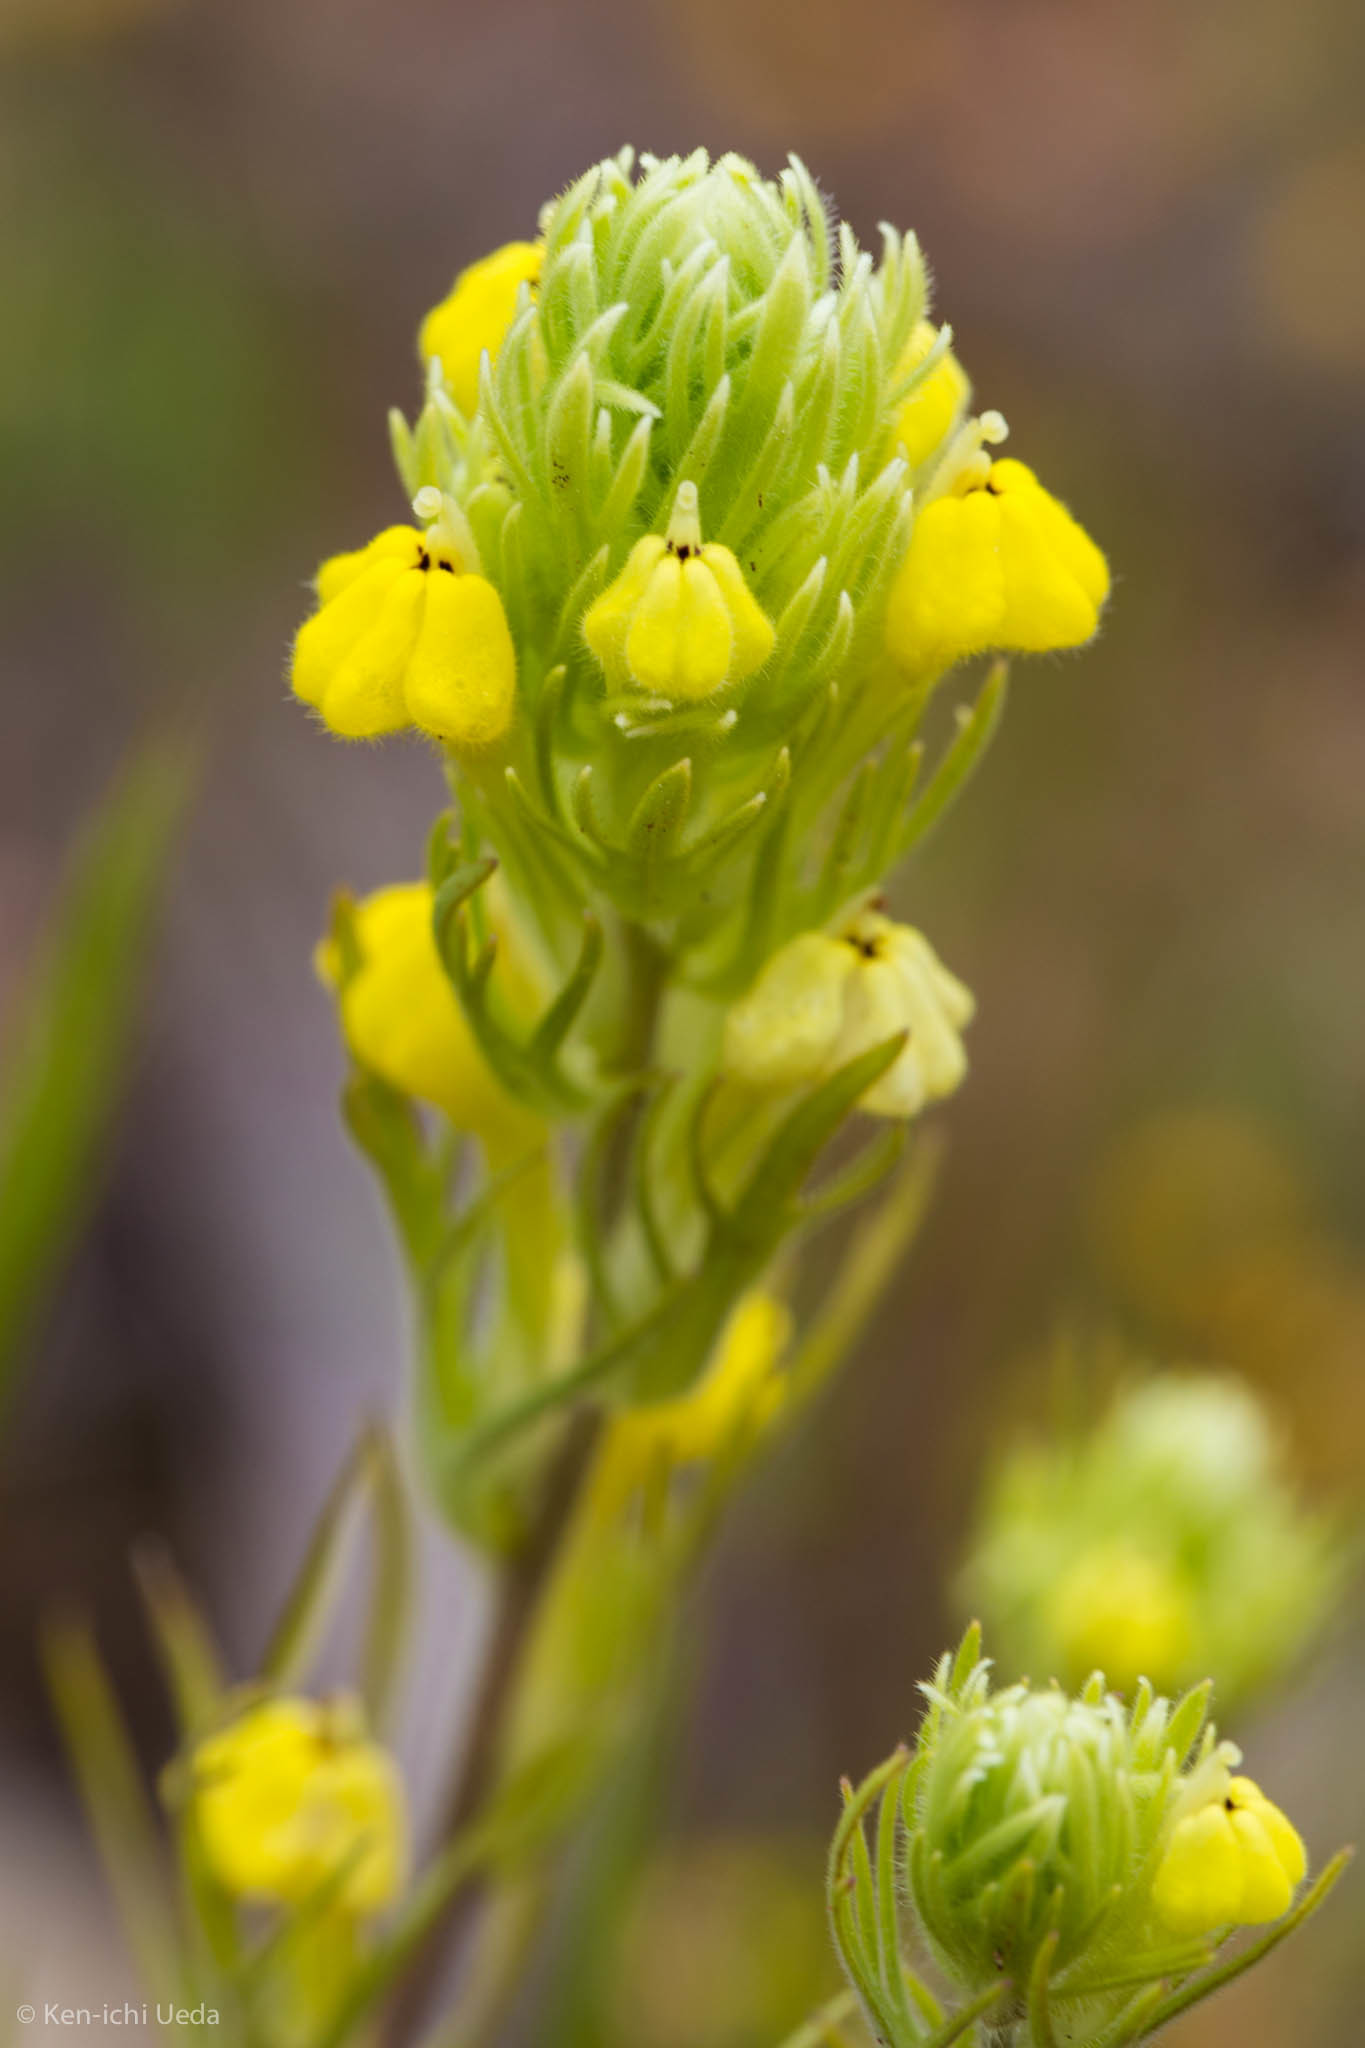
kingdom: Plantae
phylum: Tracheophyta
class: Magnoliopsida
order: Lamiales
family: Orobanchaceae
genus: Castilleja
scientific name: Castilleja lacera
